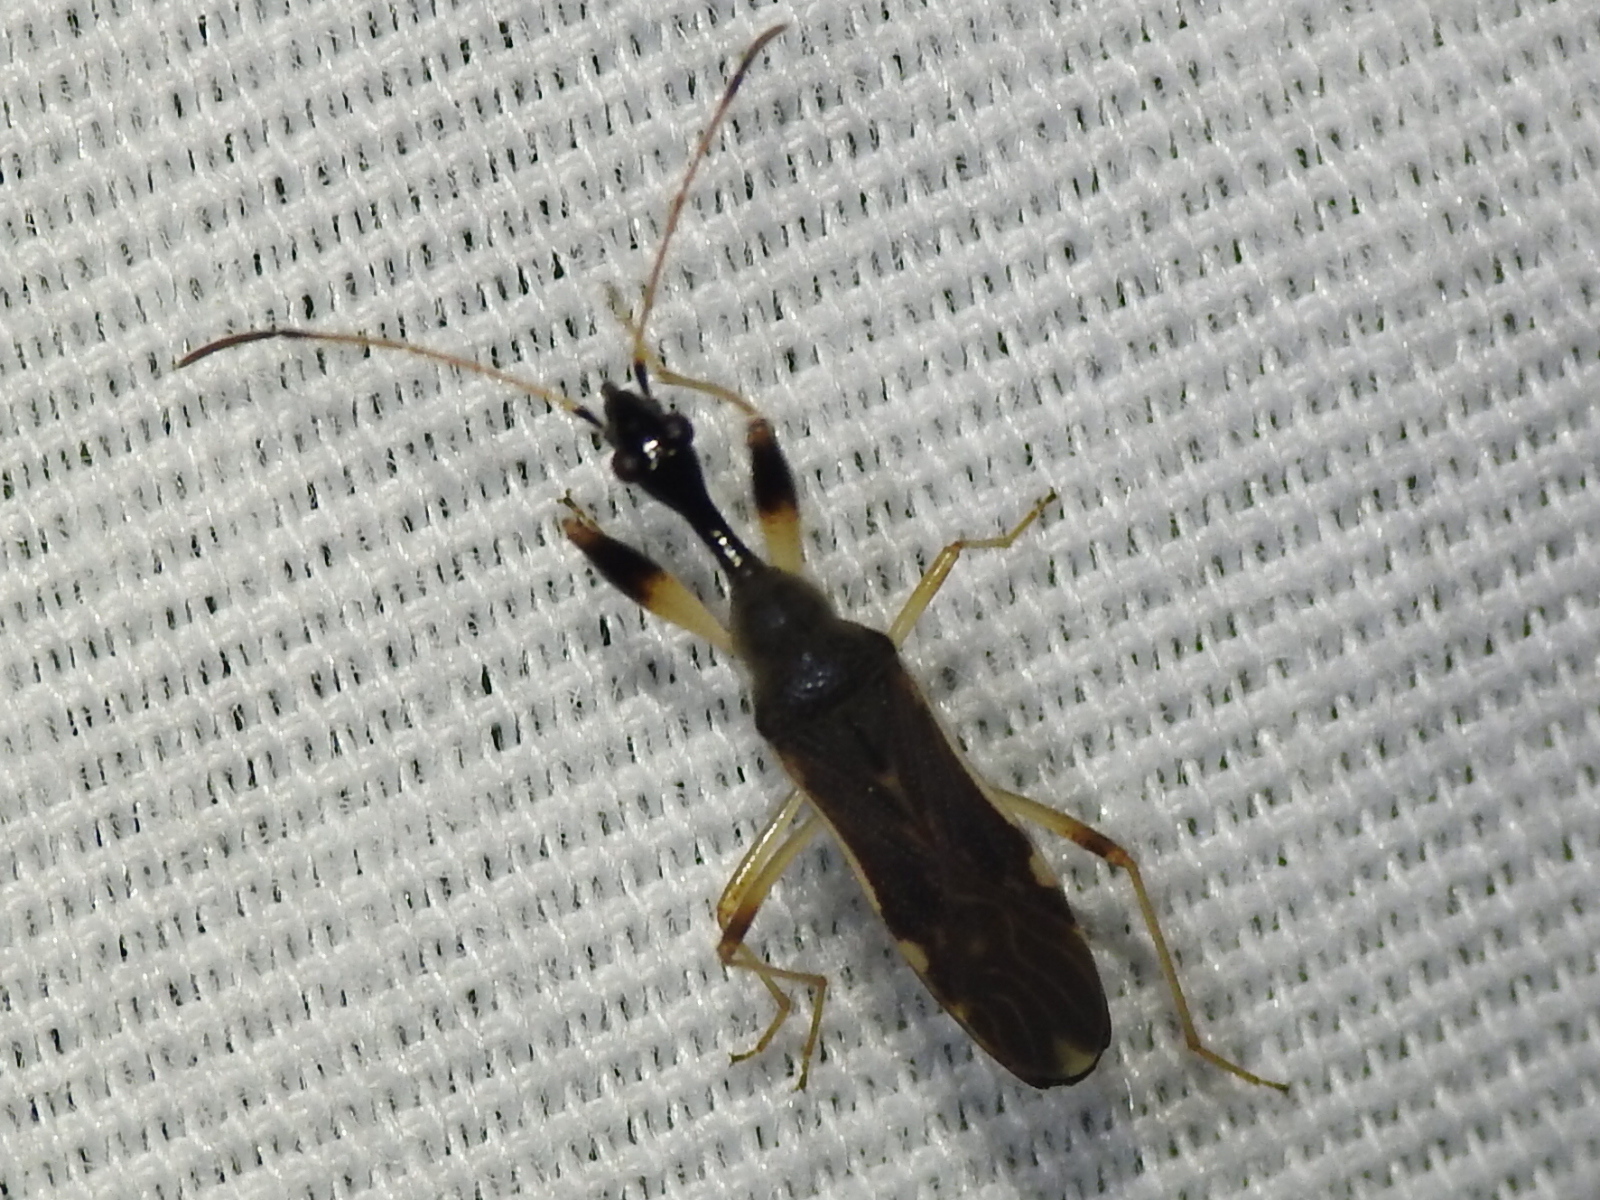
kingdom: Animalia
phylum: Arthropoda
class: Insecta
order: Hemiptera
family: Rhyparochromidae
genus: Myodocha
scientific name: Myodocha serripes
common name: Long-necked seed bug
